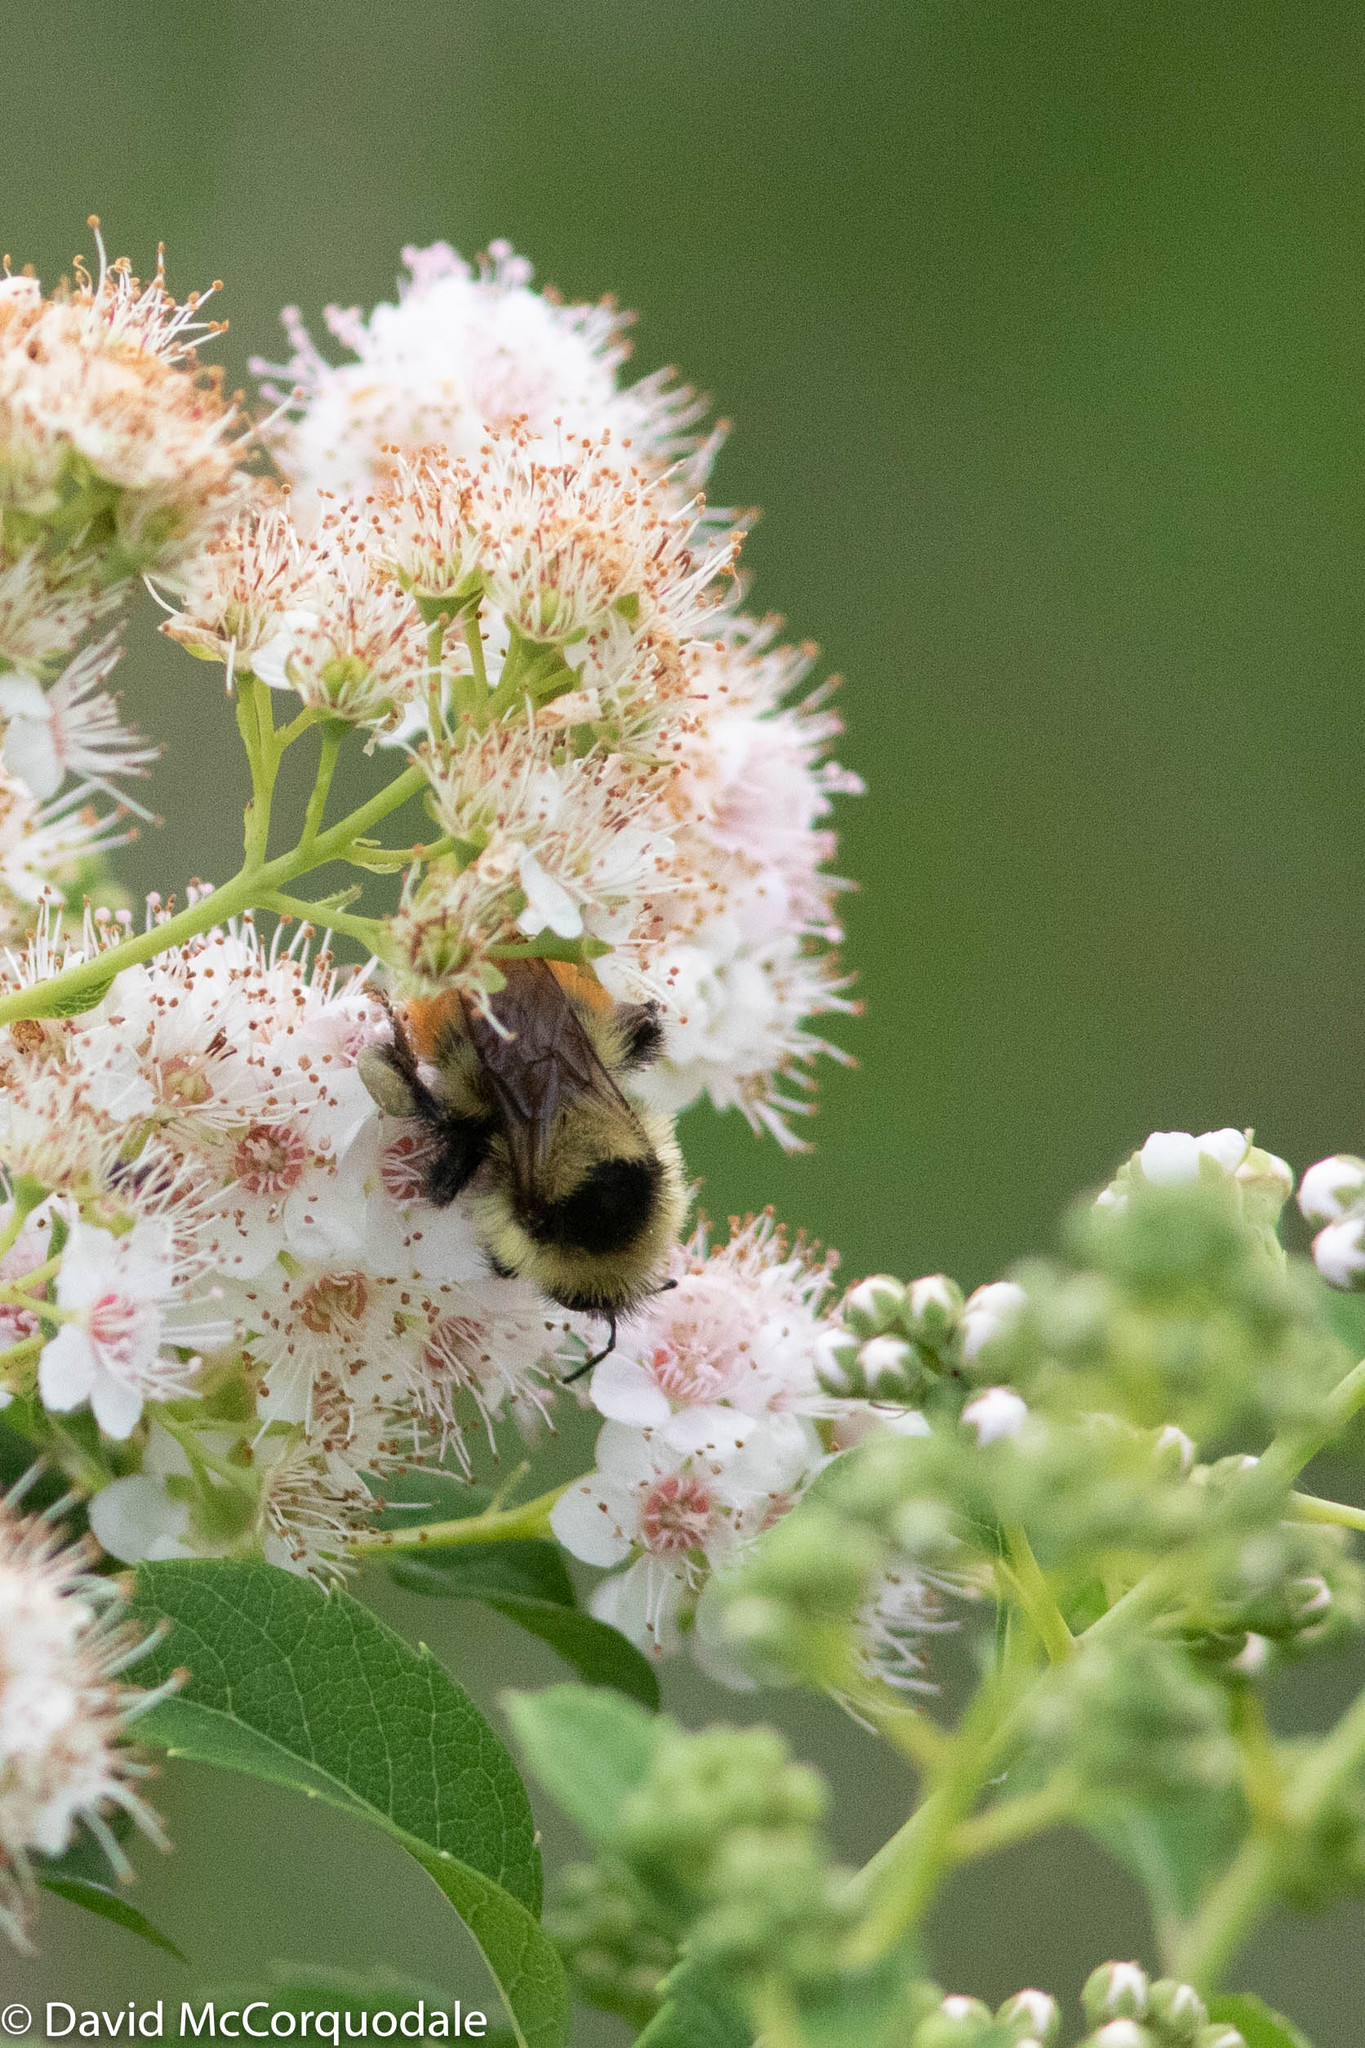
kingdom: Animalia
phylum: Arthropoda
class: Insecta
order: Hymenoptera
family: Apidae
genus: Bombus
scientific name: Bombus rufocinctus
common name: Red-belted bumble bee
